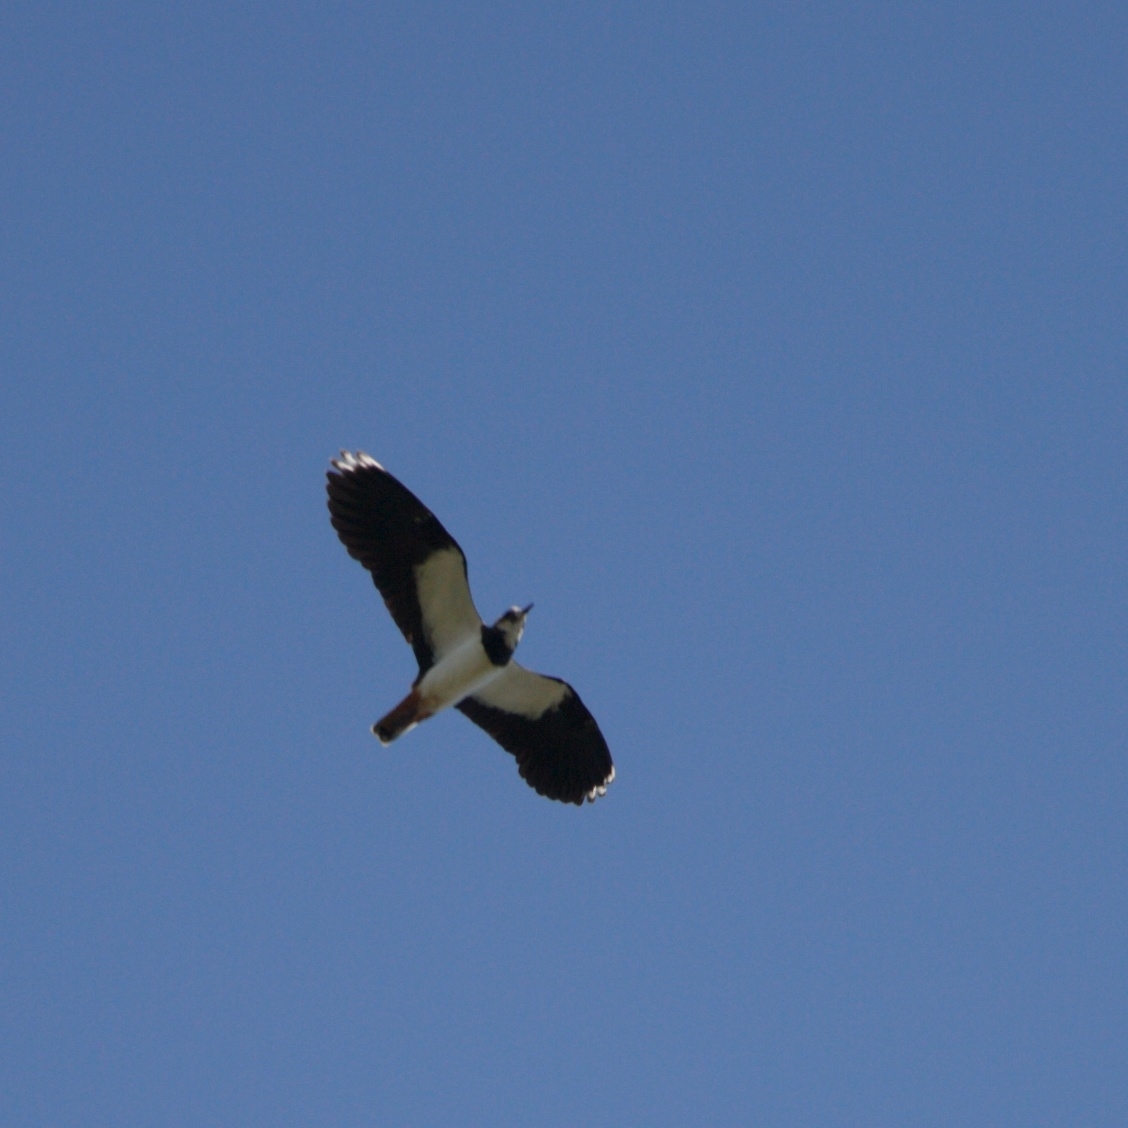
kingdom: Animalia
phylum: Chordata
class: Aves
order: Charadriiformes
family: Charadriidae
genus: Vanellus
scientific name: Vanellus vanellus
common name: Northern lapwing
